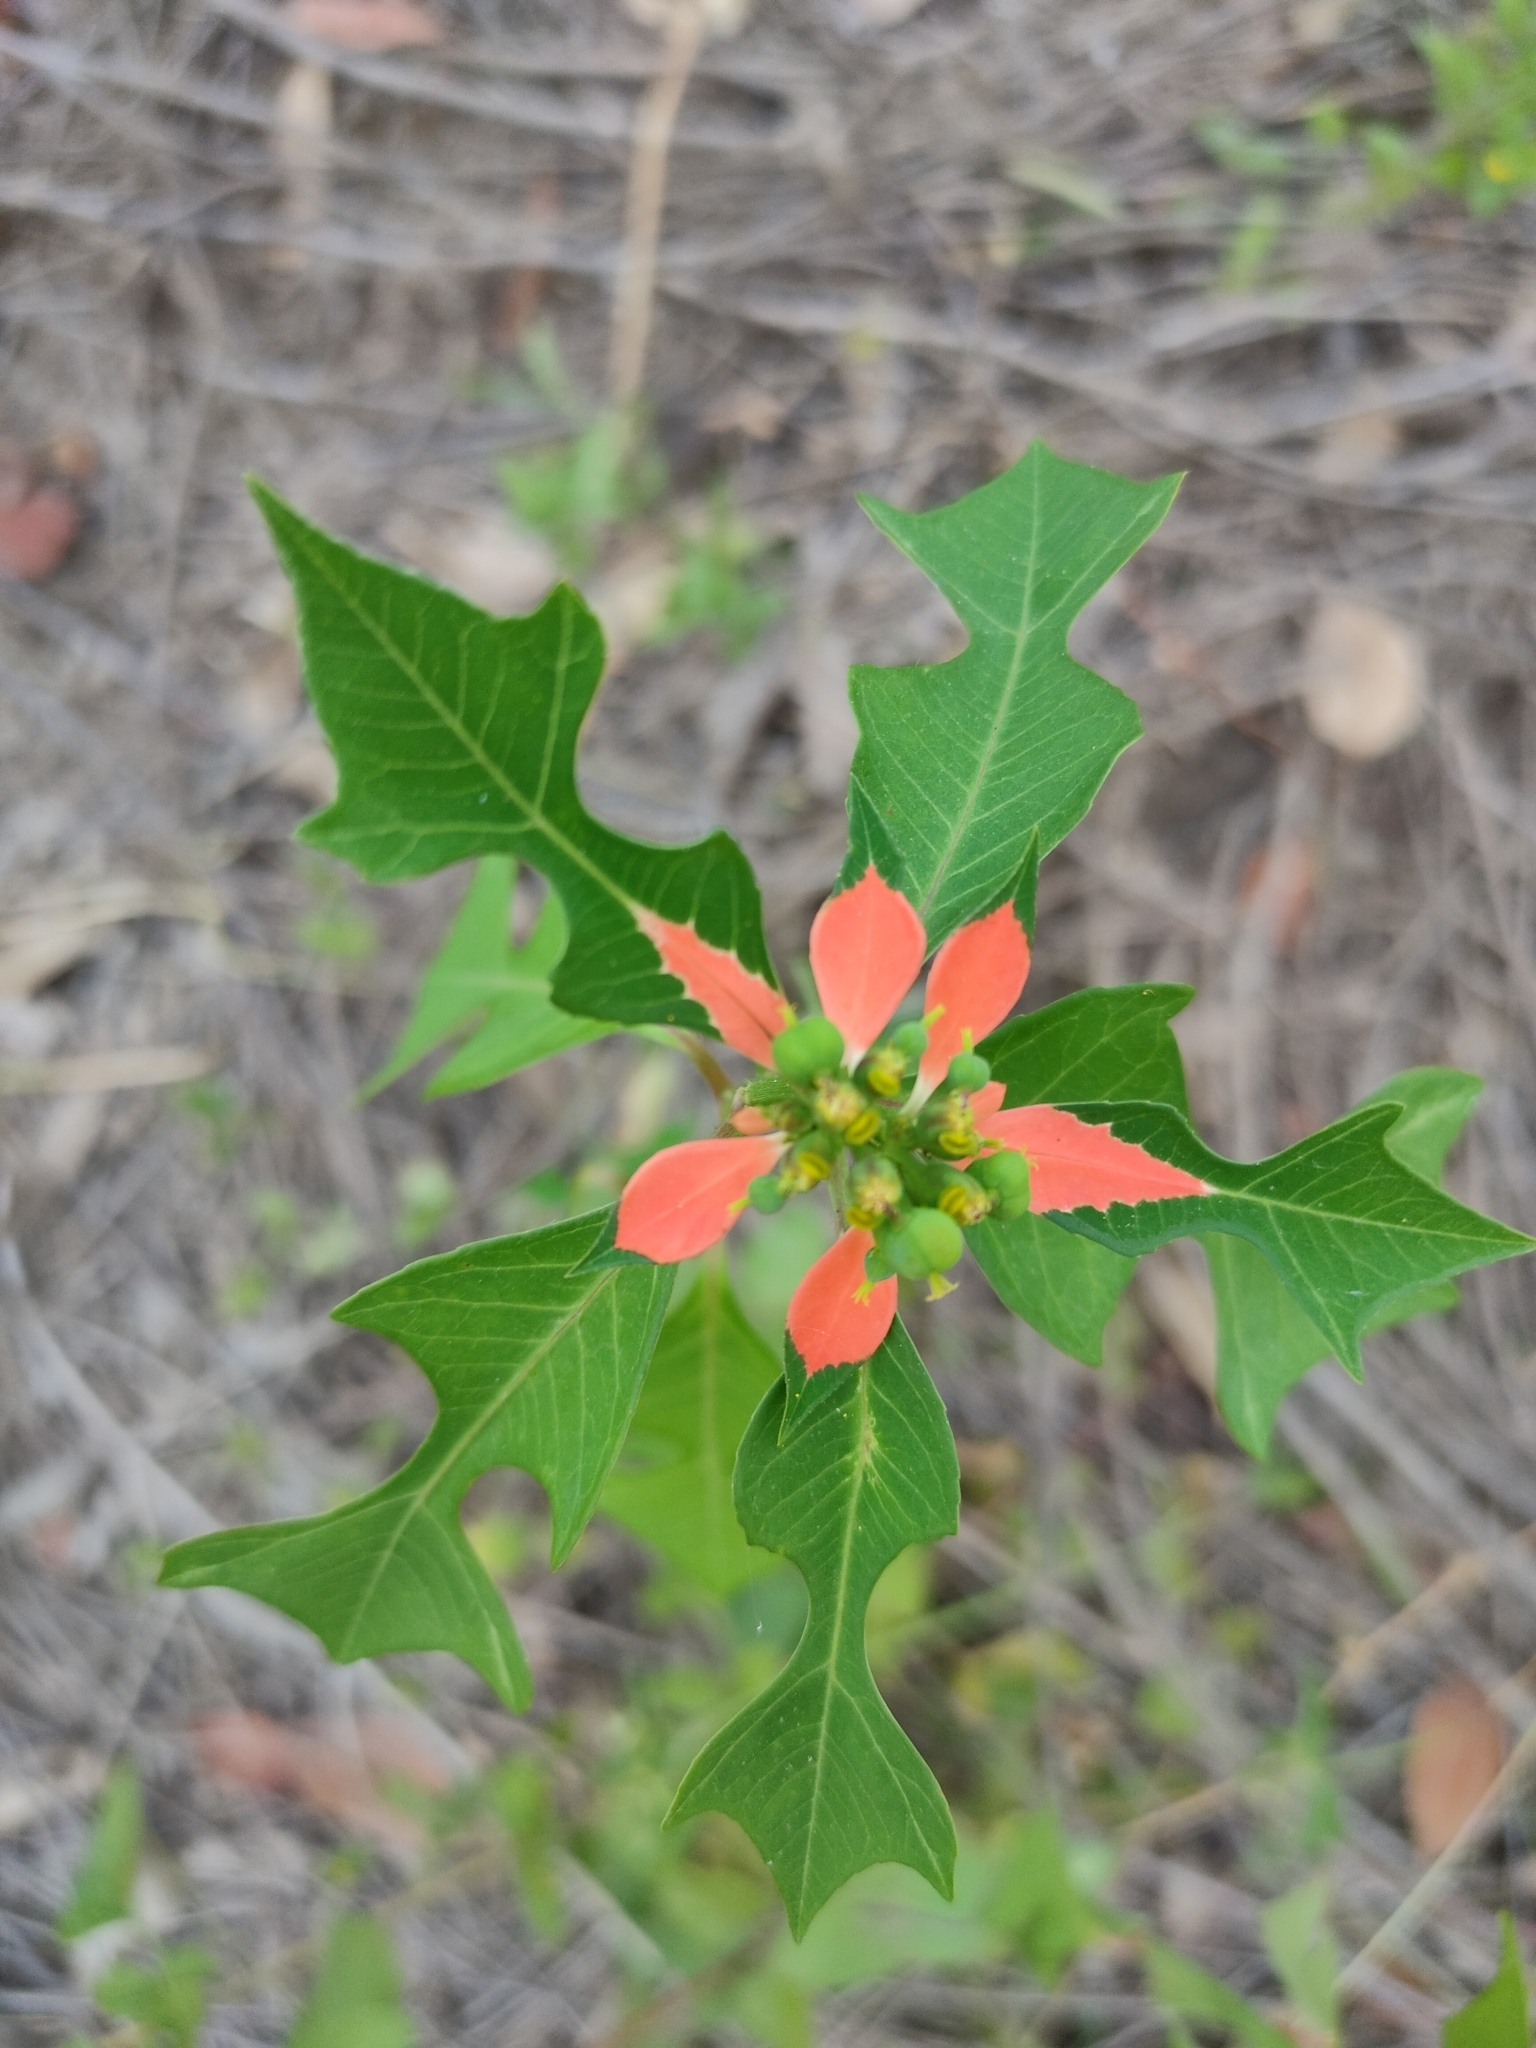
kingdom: Plantae
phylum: Tracheophyta
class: Magnoliopsida
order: Malpighiales
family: Euphorbiaceae
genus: Euphorbia
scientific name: Euphorbia heterophylla
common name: Mexican fireplant
